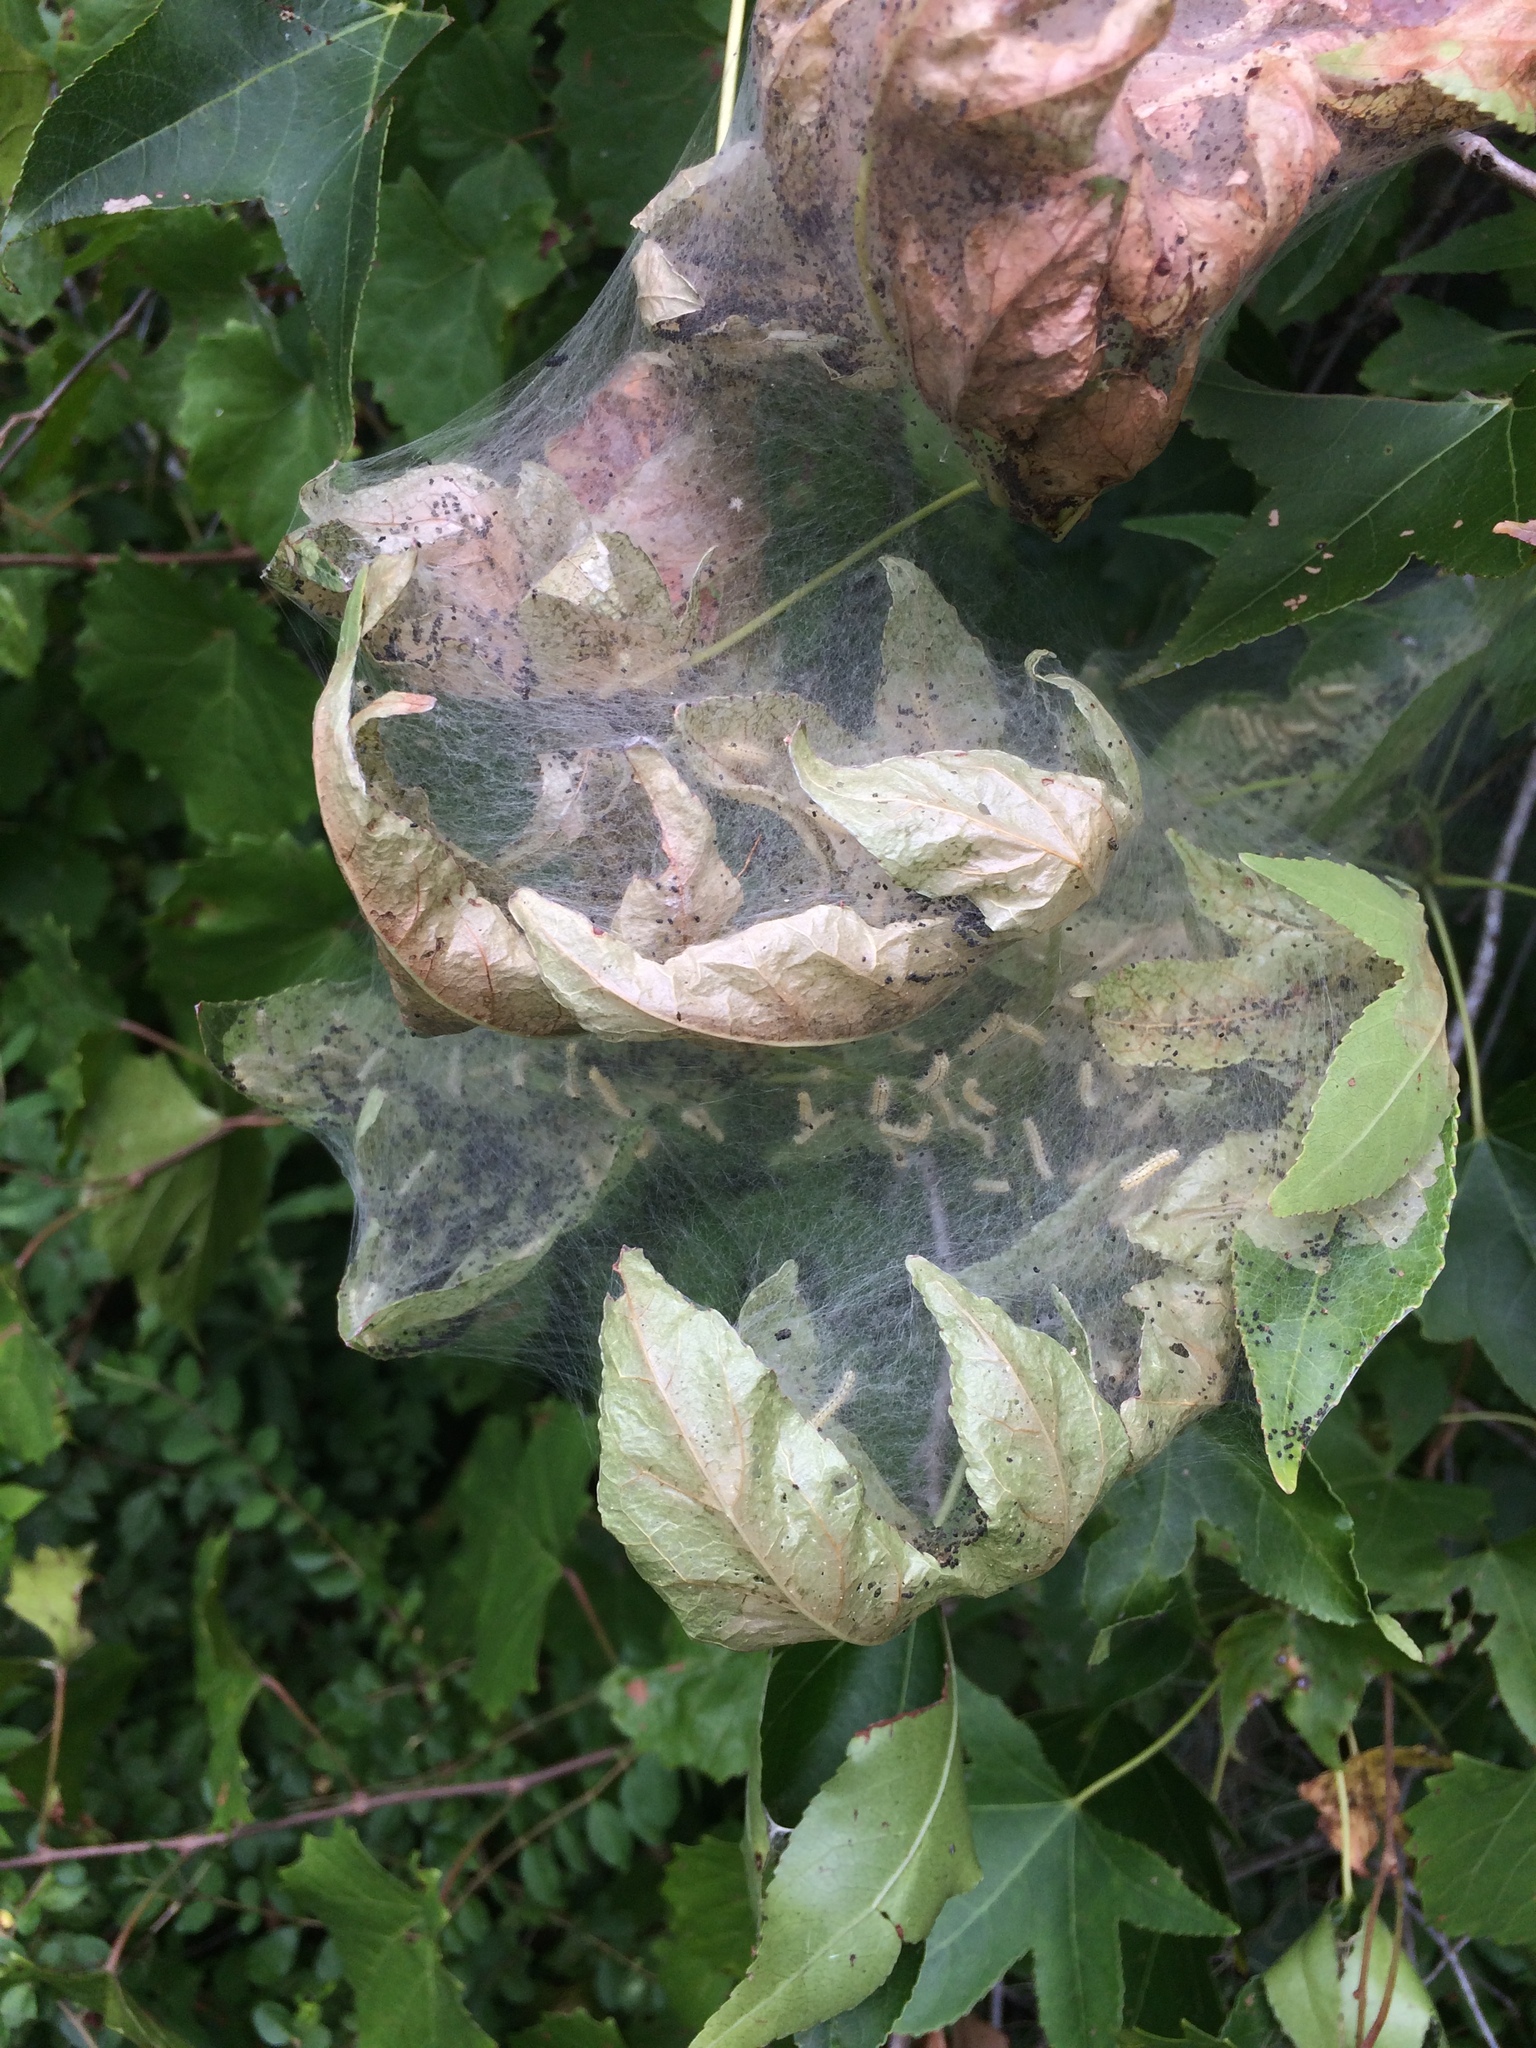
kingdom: Animalia
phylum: Arthropoda
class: Insecta
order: Lepidoptera
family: Erebidae
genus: Hyphantria
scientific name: Hyphantria cunea
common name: American white moth
